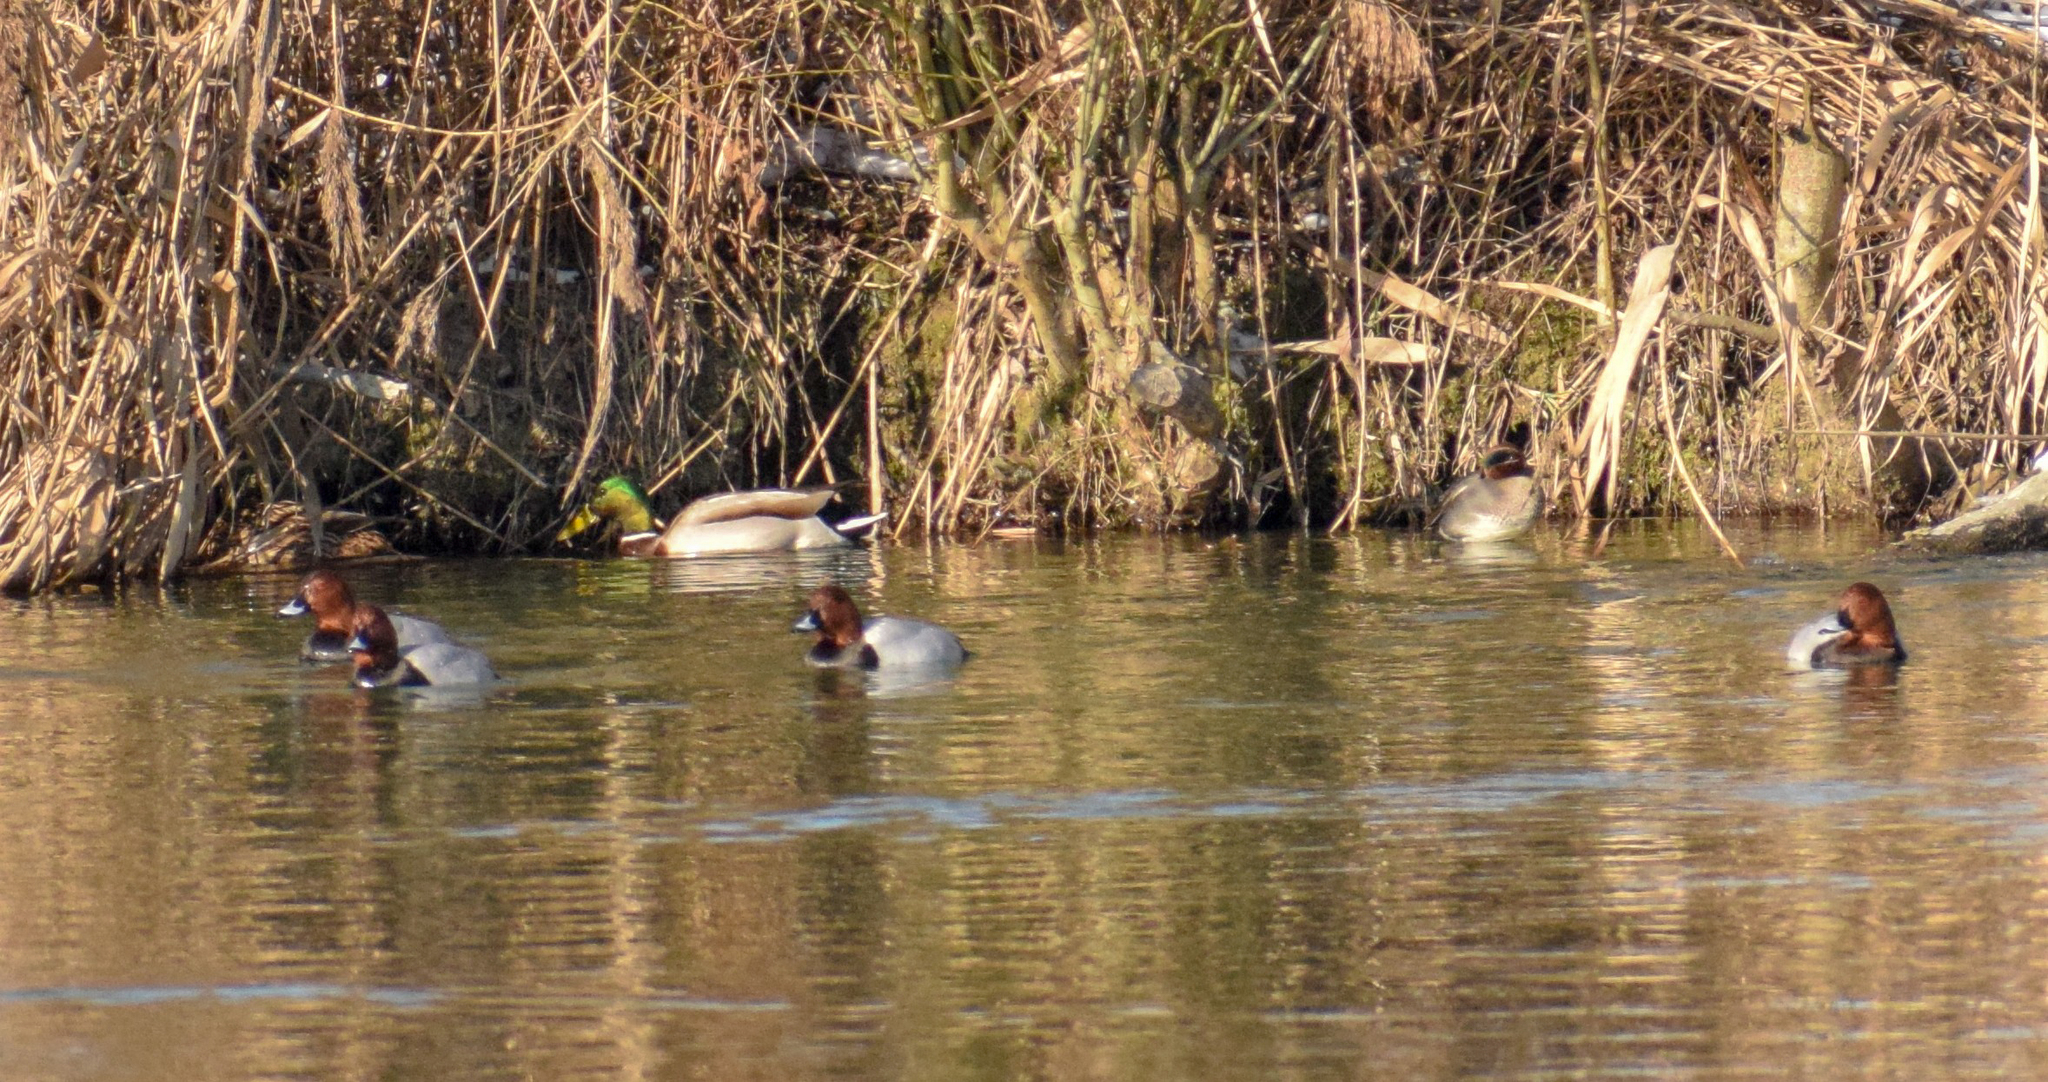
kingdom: Animalia
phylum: Chordata
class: Aves
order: Anseriformes
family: Anatidae
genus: Anas
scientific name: Anas platyrhynchos
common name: Mallard
